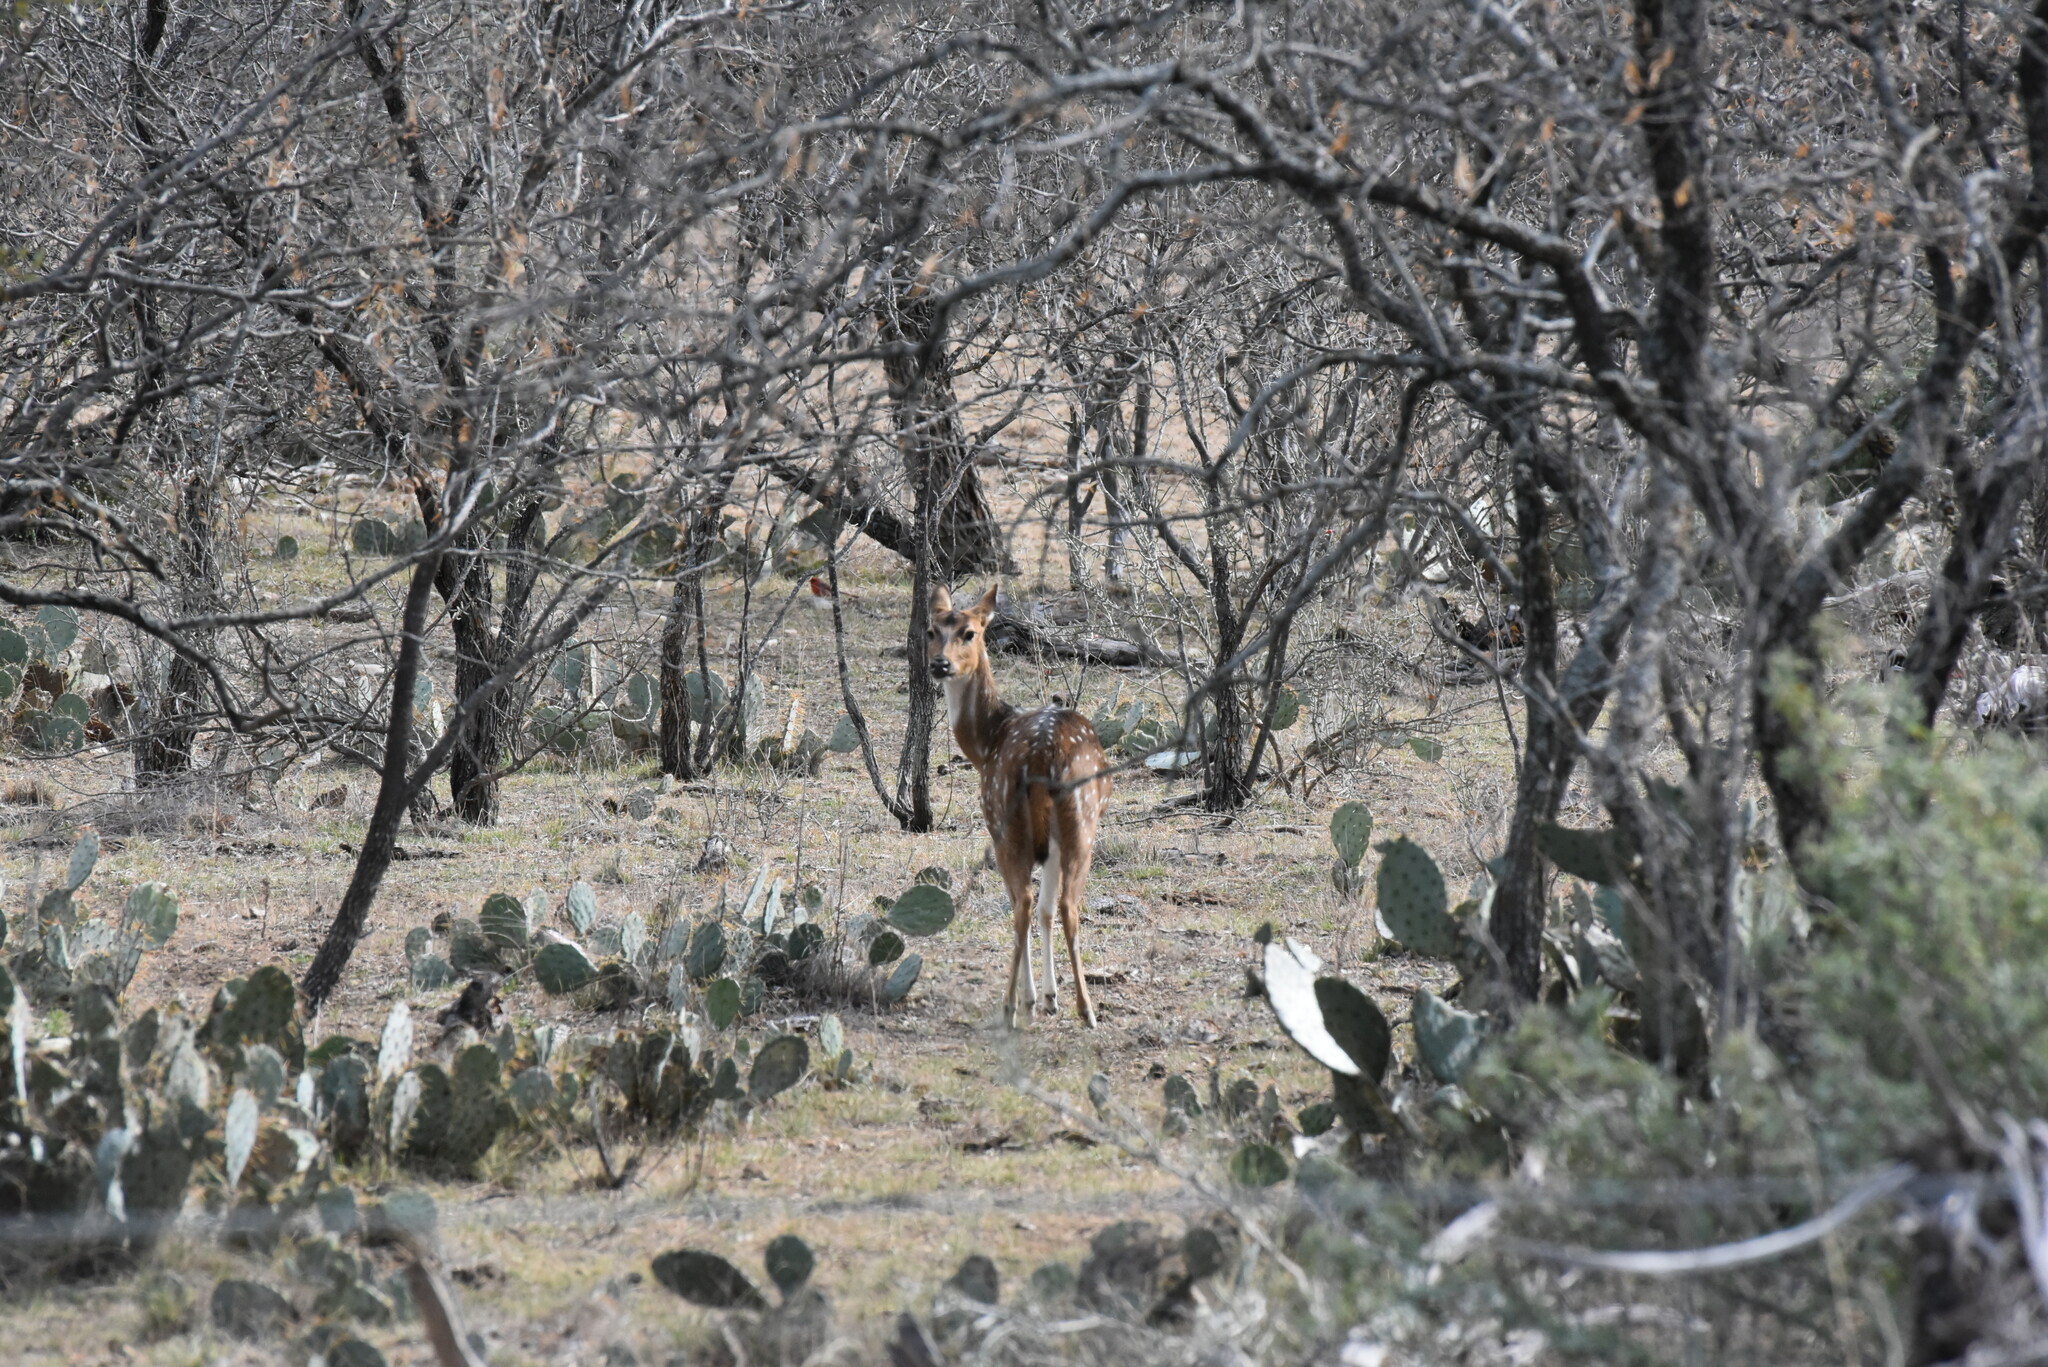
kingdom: Animalia
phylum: Chordata
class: Mammalia
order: Artiodactyla
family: Cervidae
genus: Axis
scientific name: Axis axis
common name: Chital
